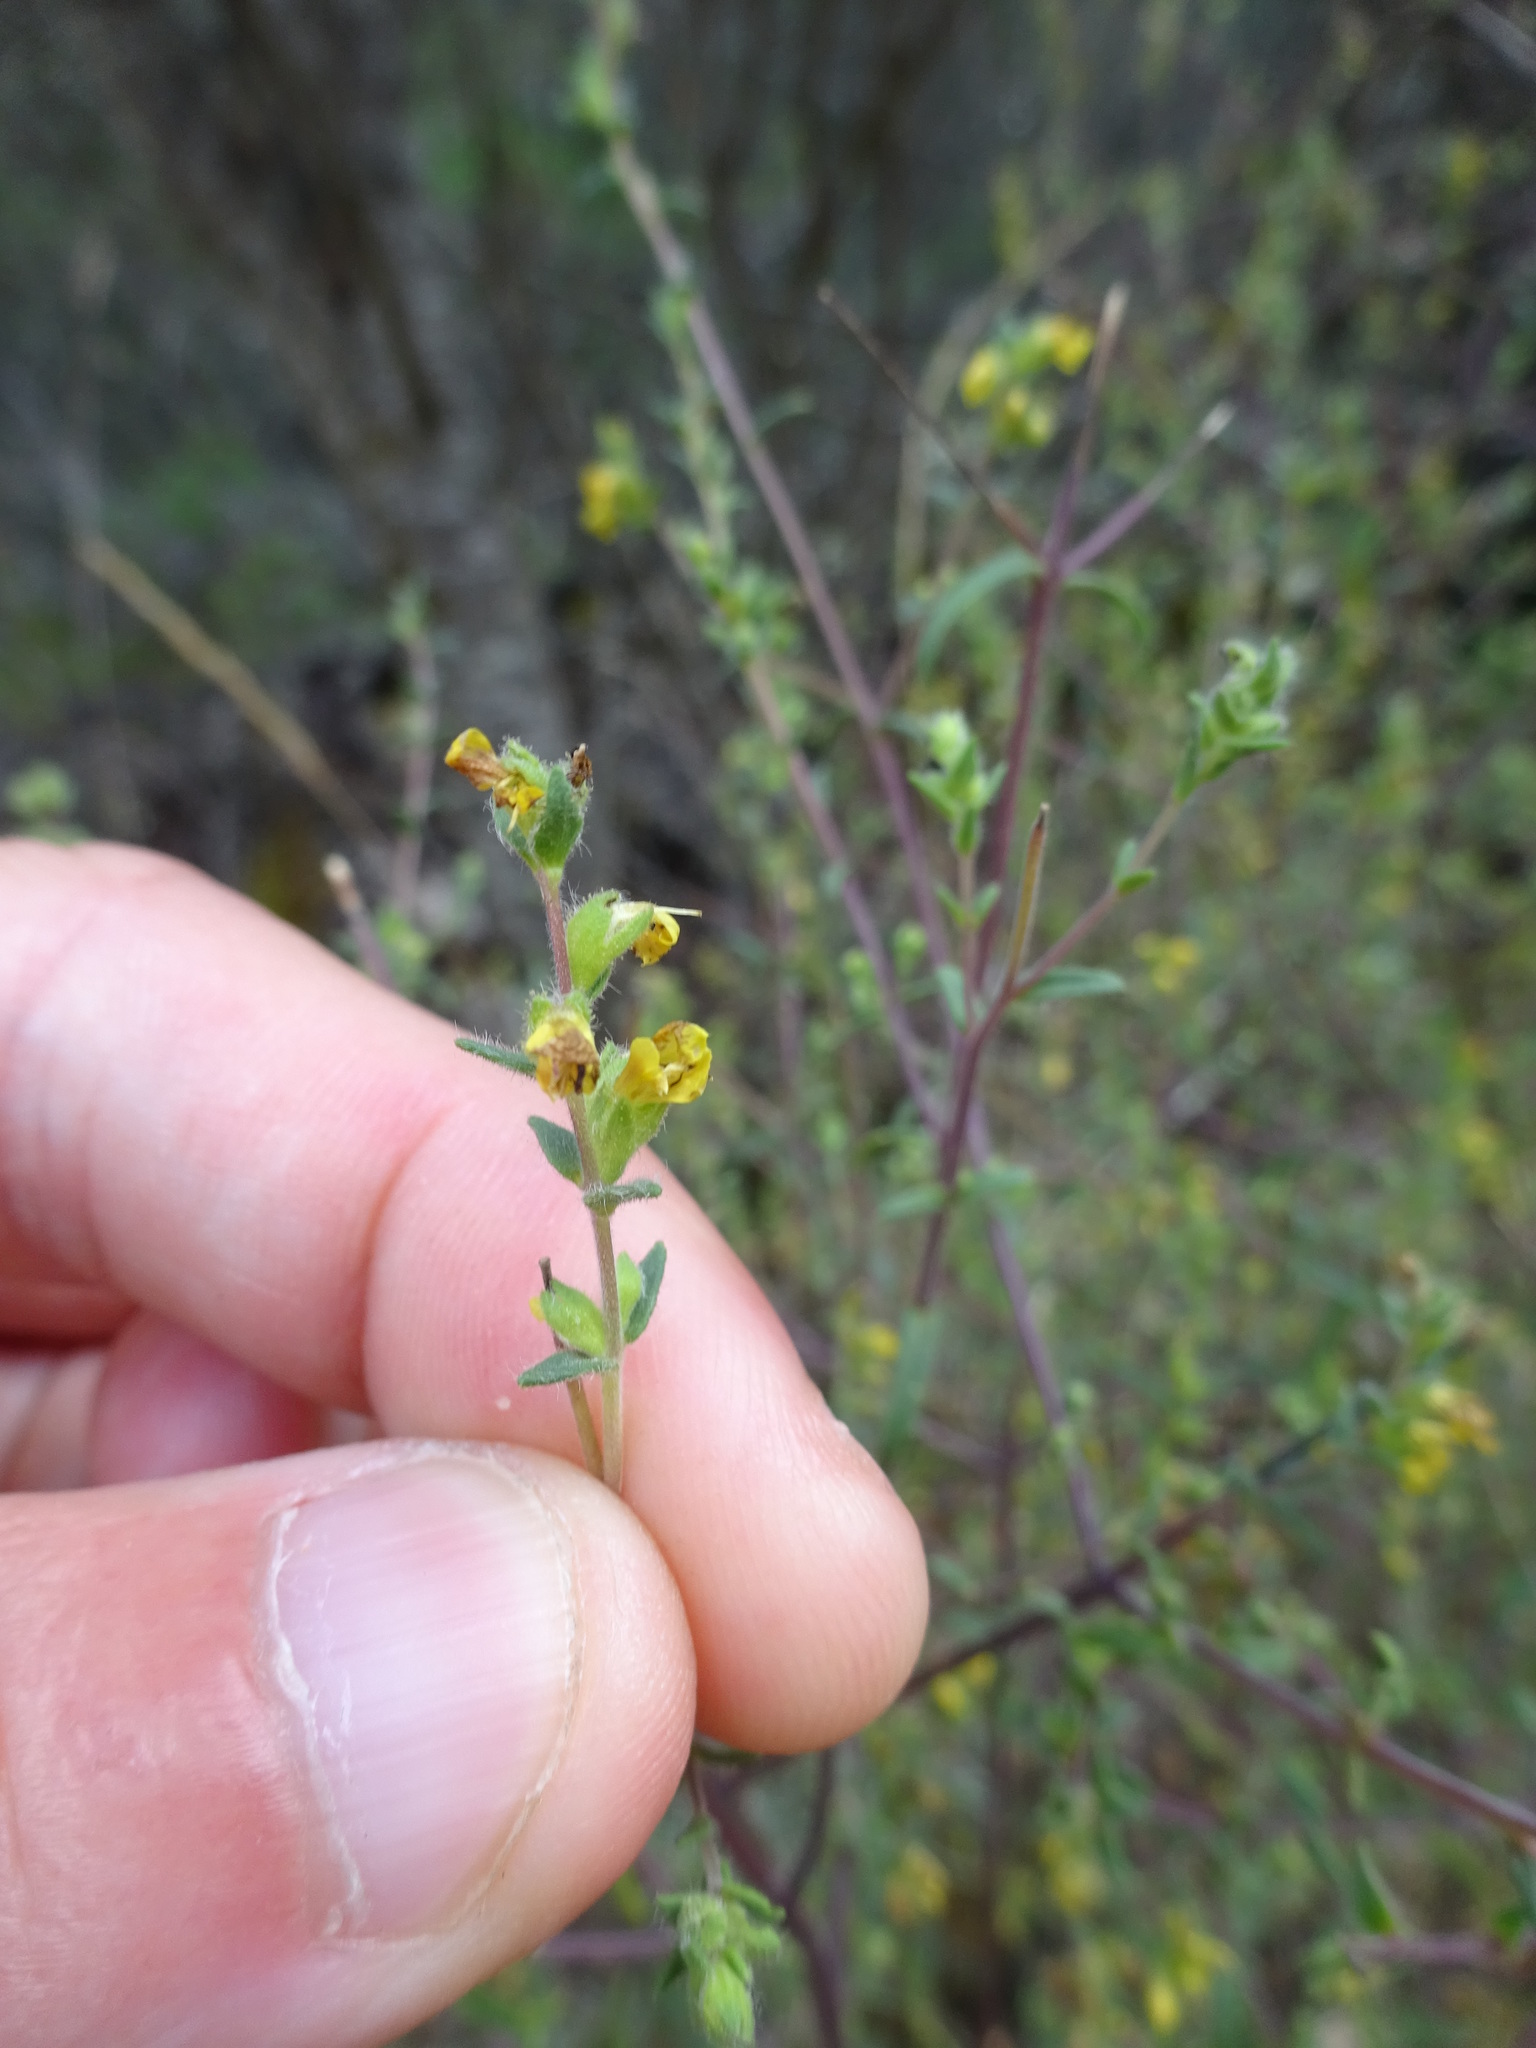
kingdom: Plantae
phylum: Tracheophyta
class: Magnoliopsida
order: Lamiales
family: Orobanchaceae
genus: Odontites
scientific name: Odontites viscosus
